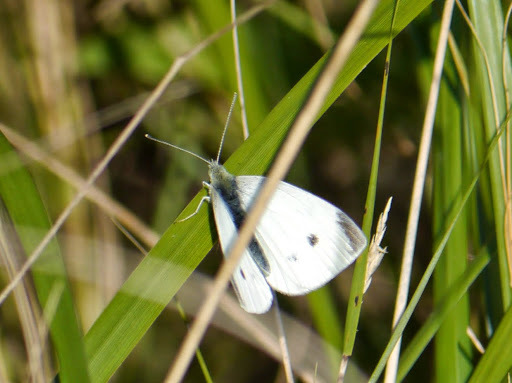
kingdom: Animalia
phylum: Arthropoda
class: Insecta
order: Lepidoptera
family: Pieridae
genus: Pieris
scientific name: Pieris rapae
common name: Small white
